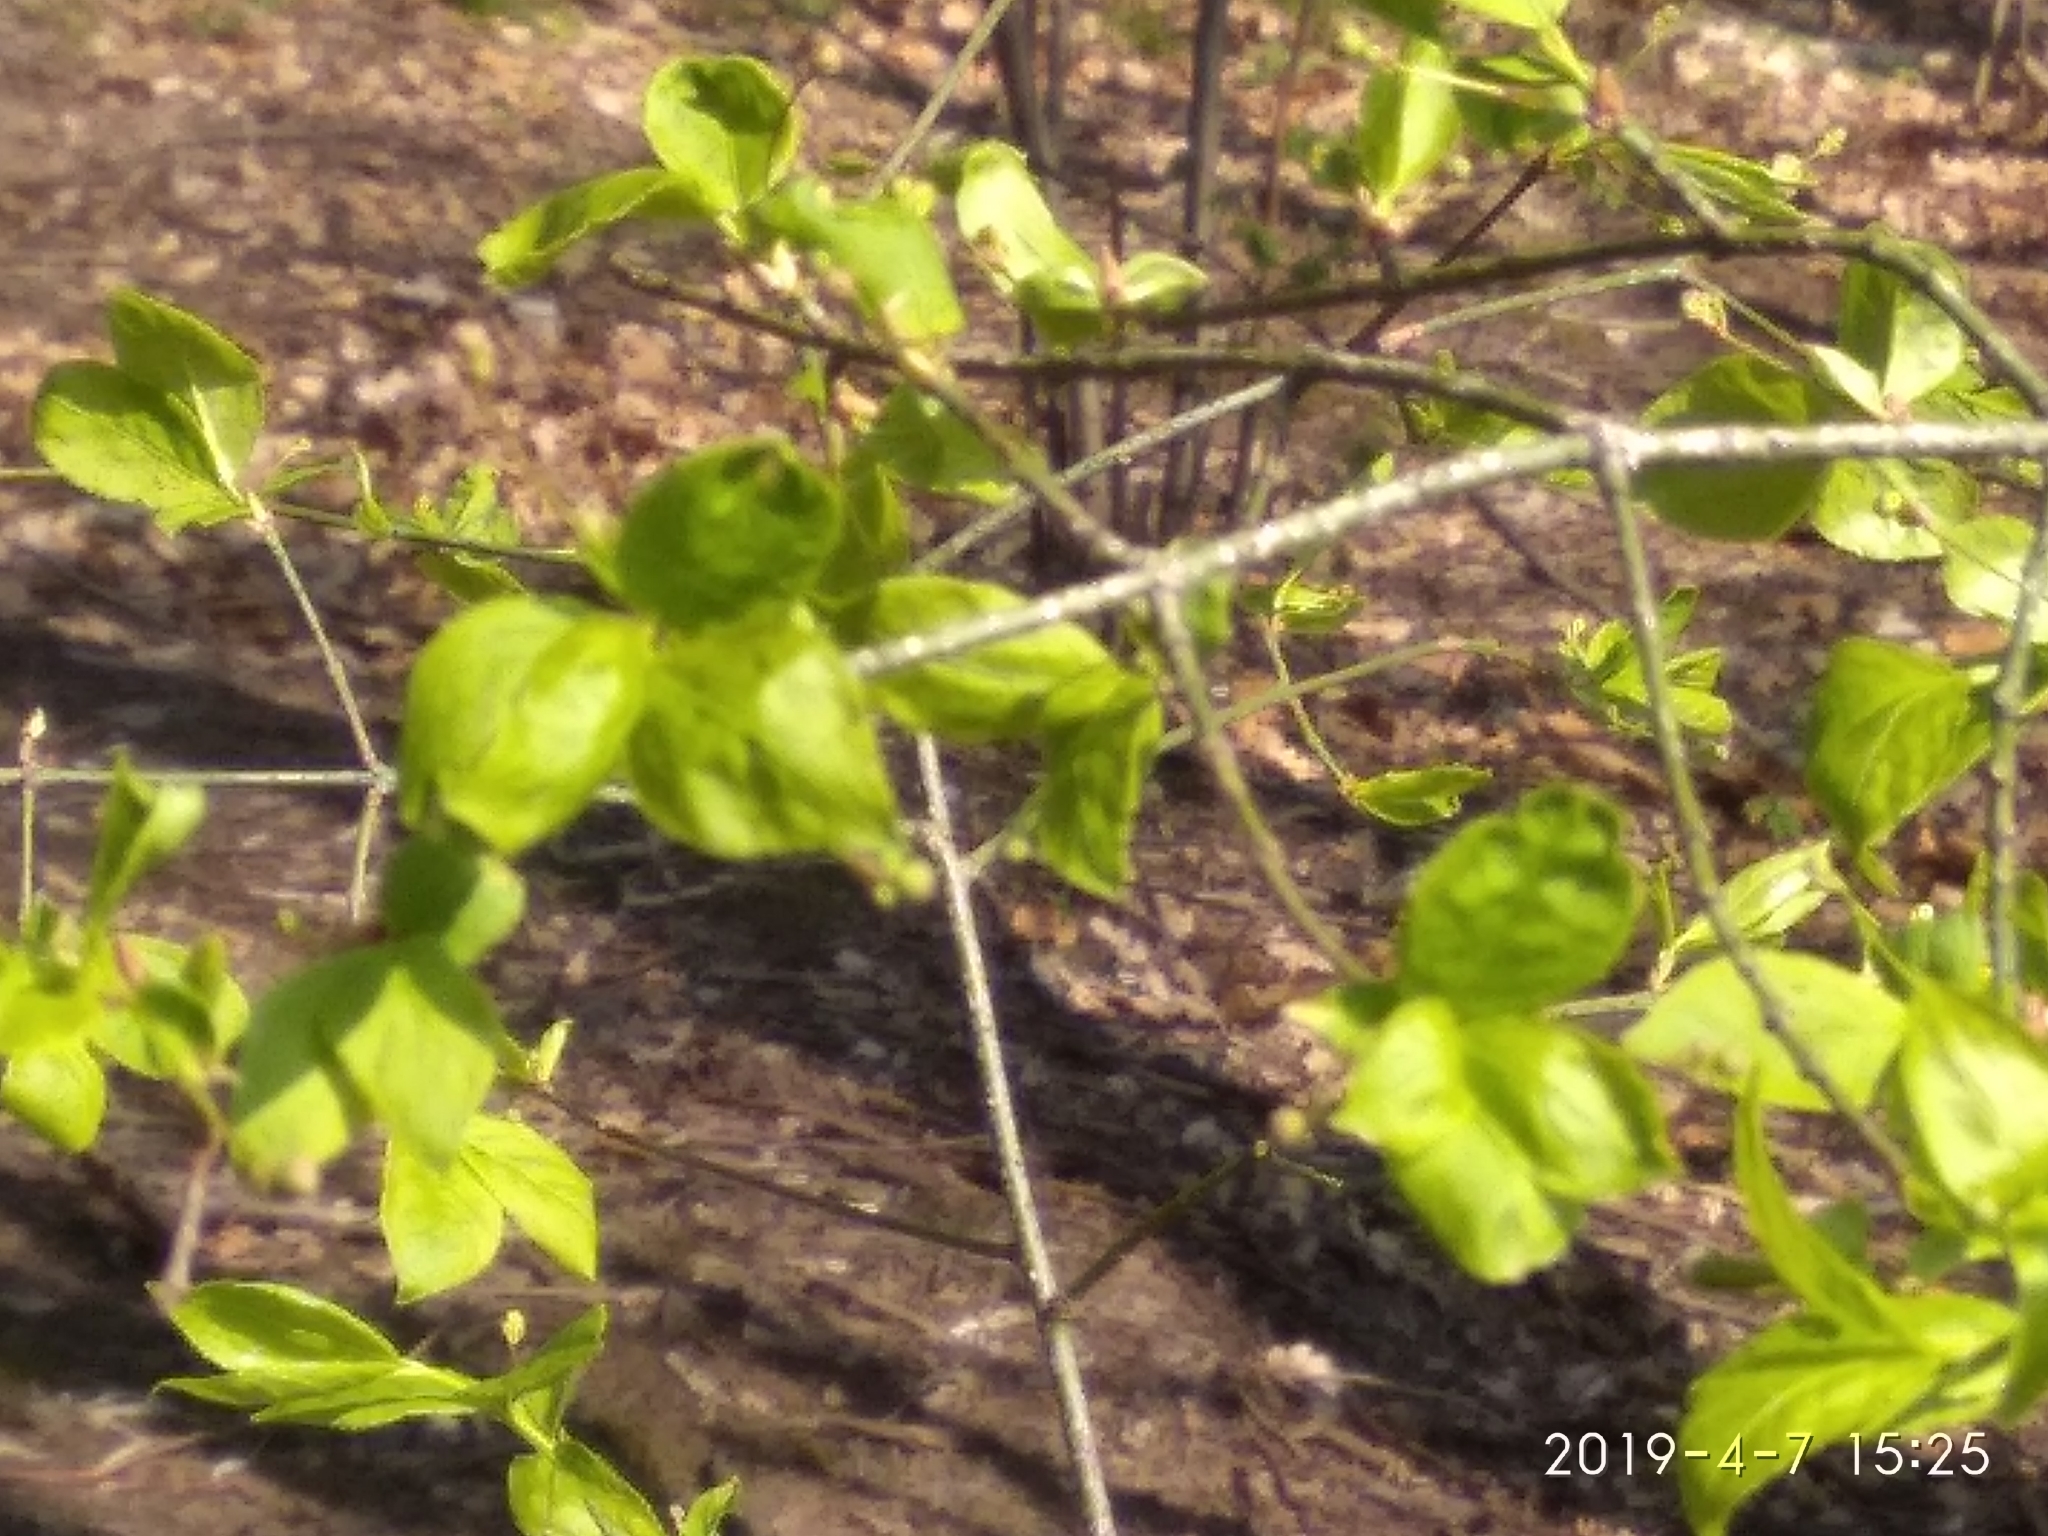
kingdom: Plantae
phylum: Tracheophyta
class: Magnoliopsida
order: Celastrales
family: Celastraceae
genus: Euonymus
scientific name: Euonymus verrucosus
